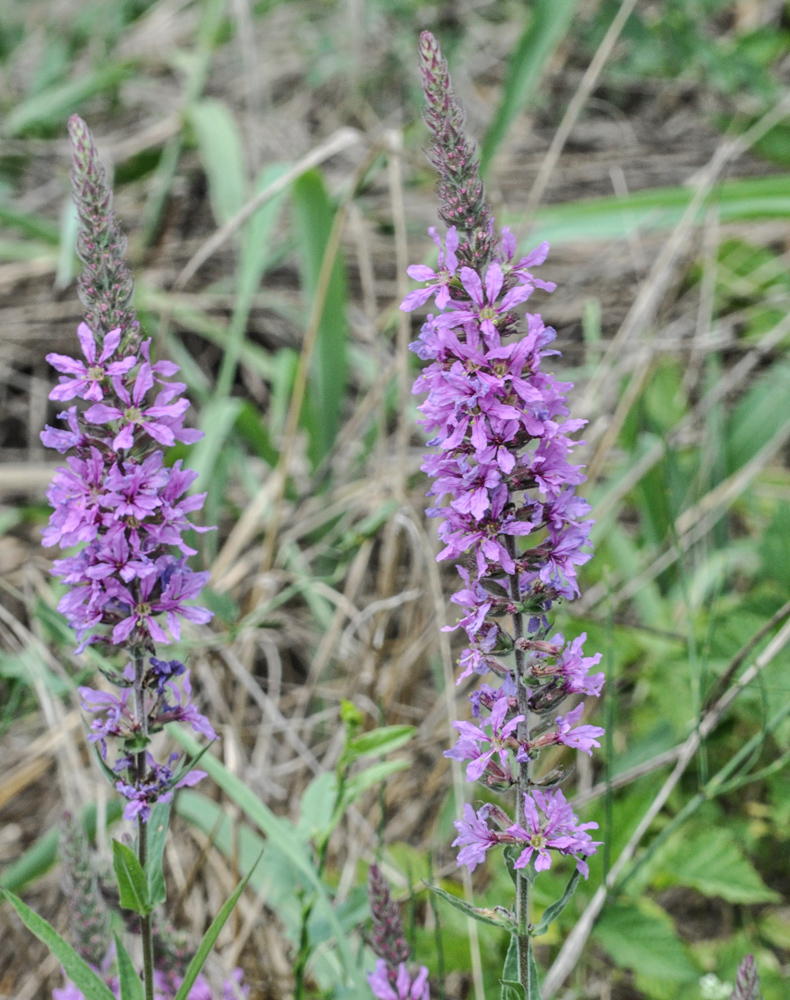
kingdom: Plantae
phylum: Tracheophyta
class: Magnoliopsida
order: Myrtales
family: Lythraceae
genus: Lythrum
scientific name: Lythrum salicaria
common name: Purple loosestrife
